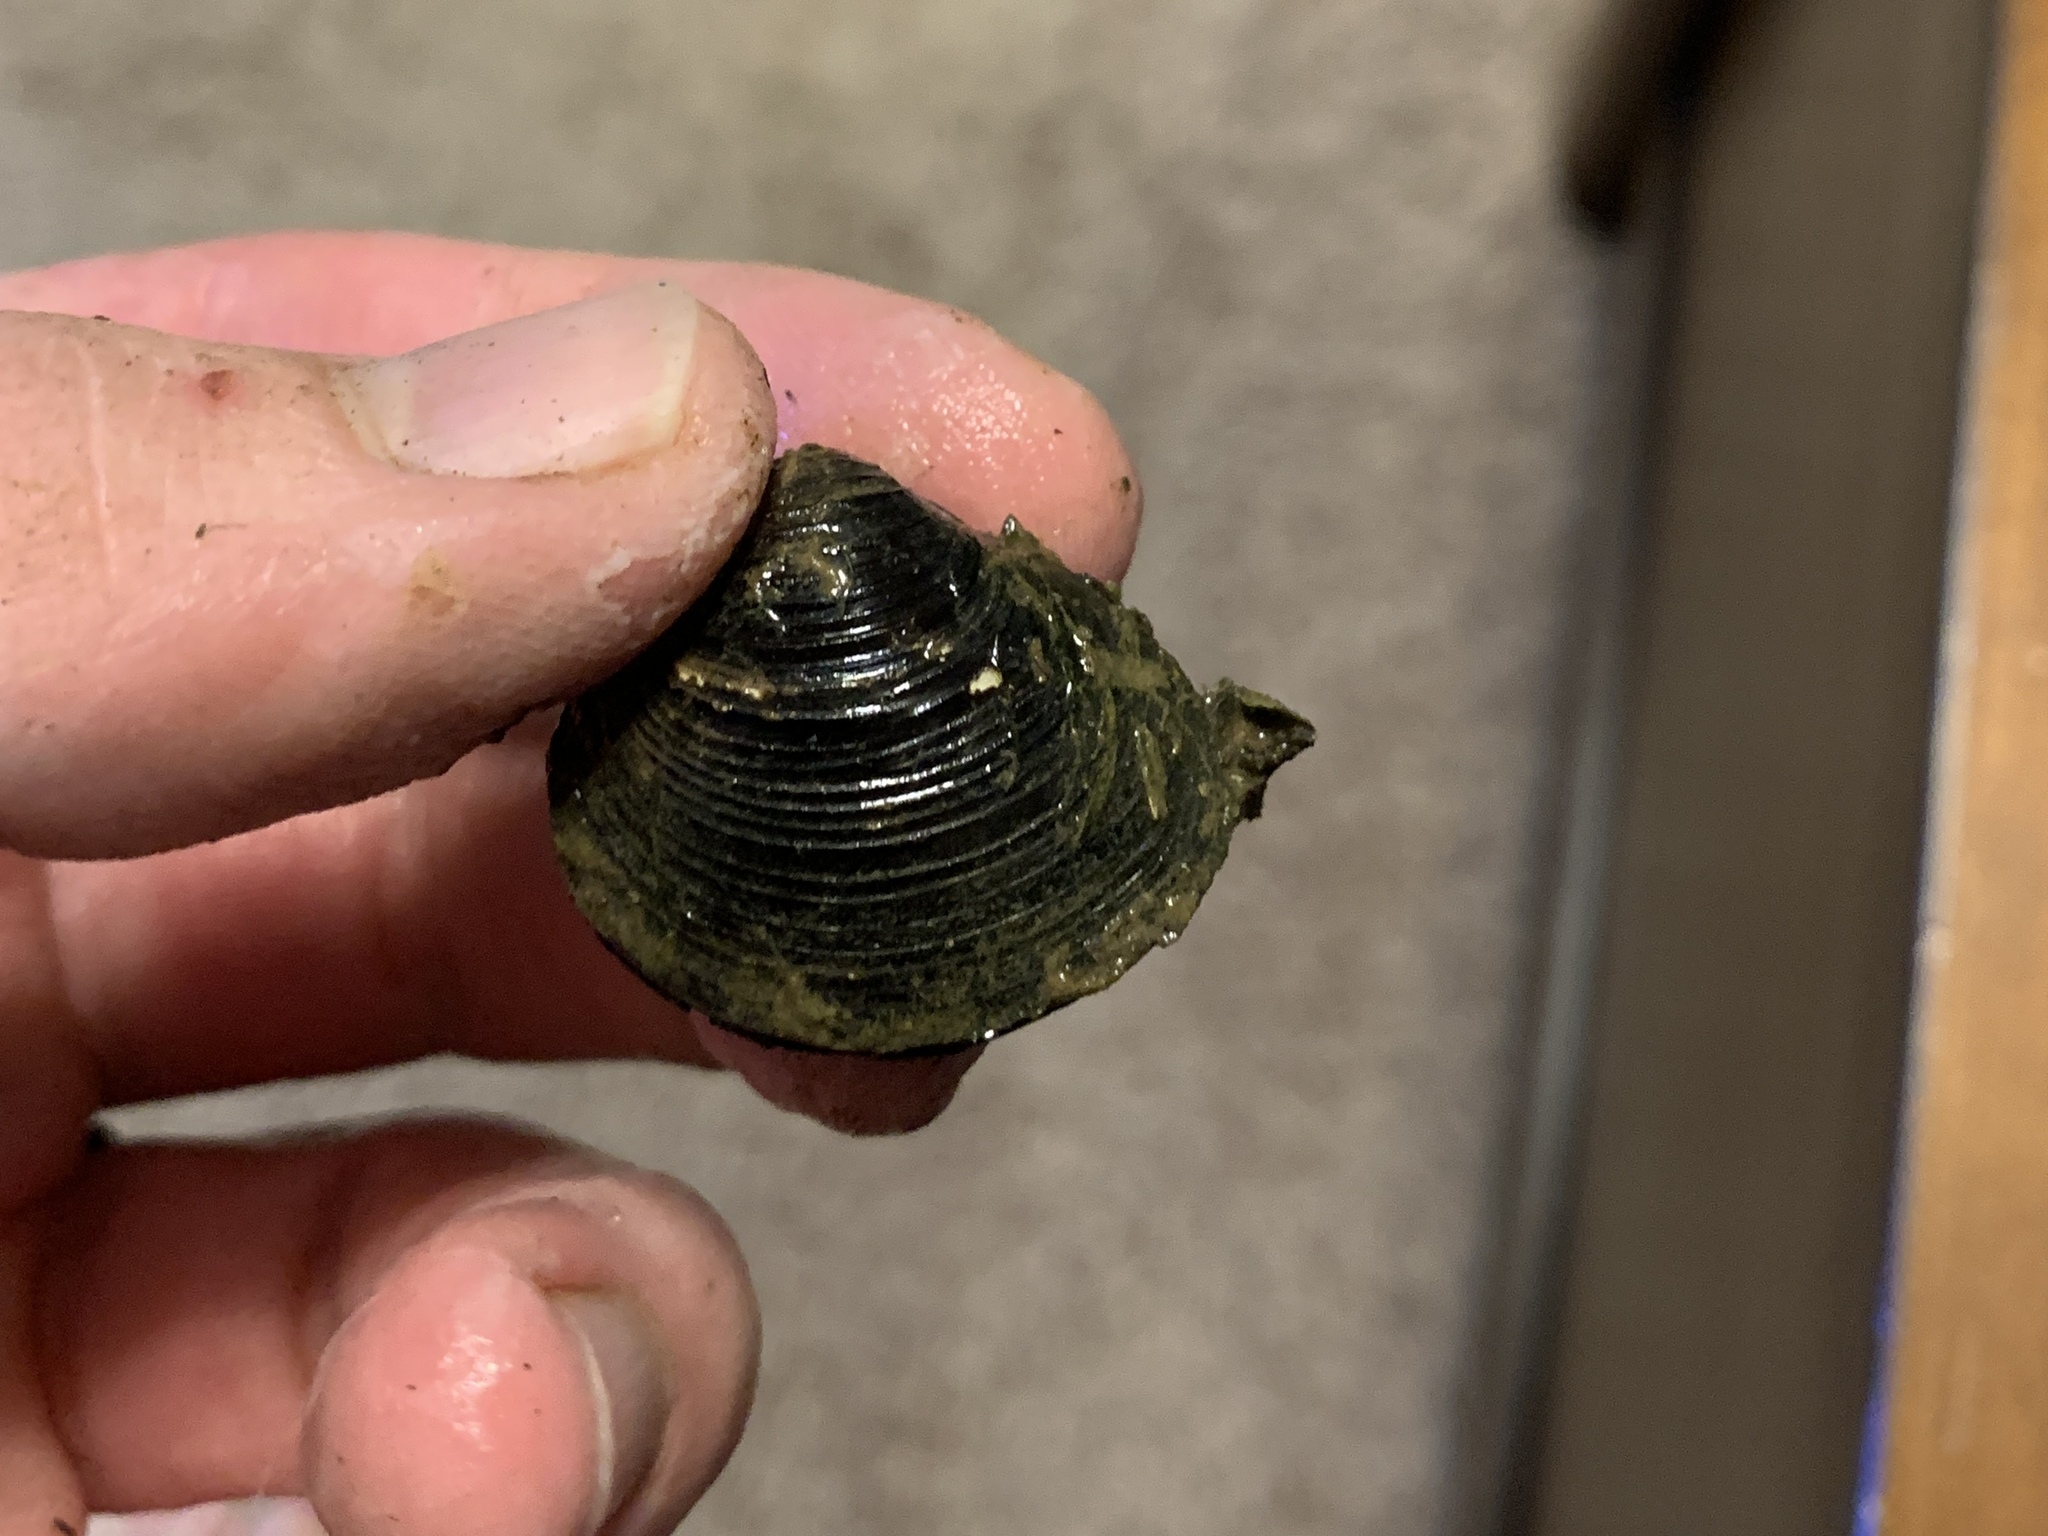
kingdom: Animalia
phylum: Mollusca
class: Bivalvia
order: Venerida
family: Cyrenidae
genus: Corbicula
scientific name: Corbicula fluminea
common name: Asian clam
